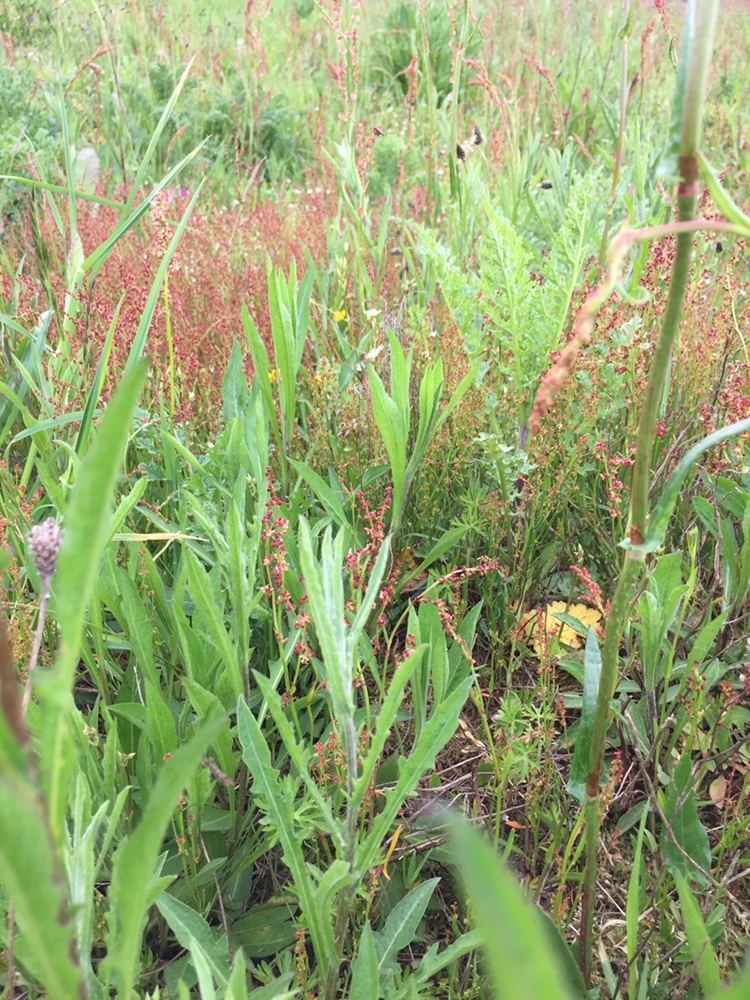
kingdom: Plantae
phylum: Tracheophyta
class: Magnoliopsida
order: Caryophyllales
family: Polygonaceae
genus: Rumex
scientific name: Rumex acetosella
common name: Common sheep sorrel
